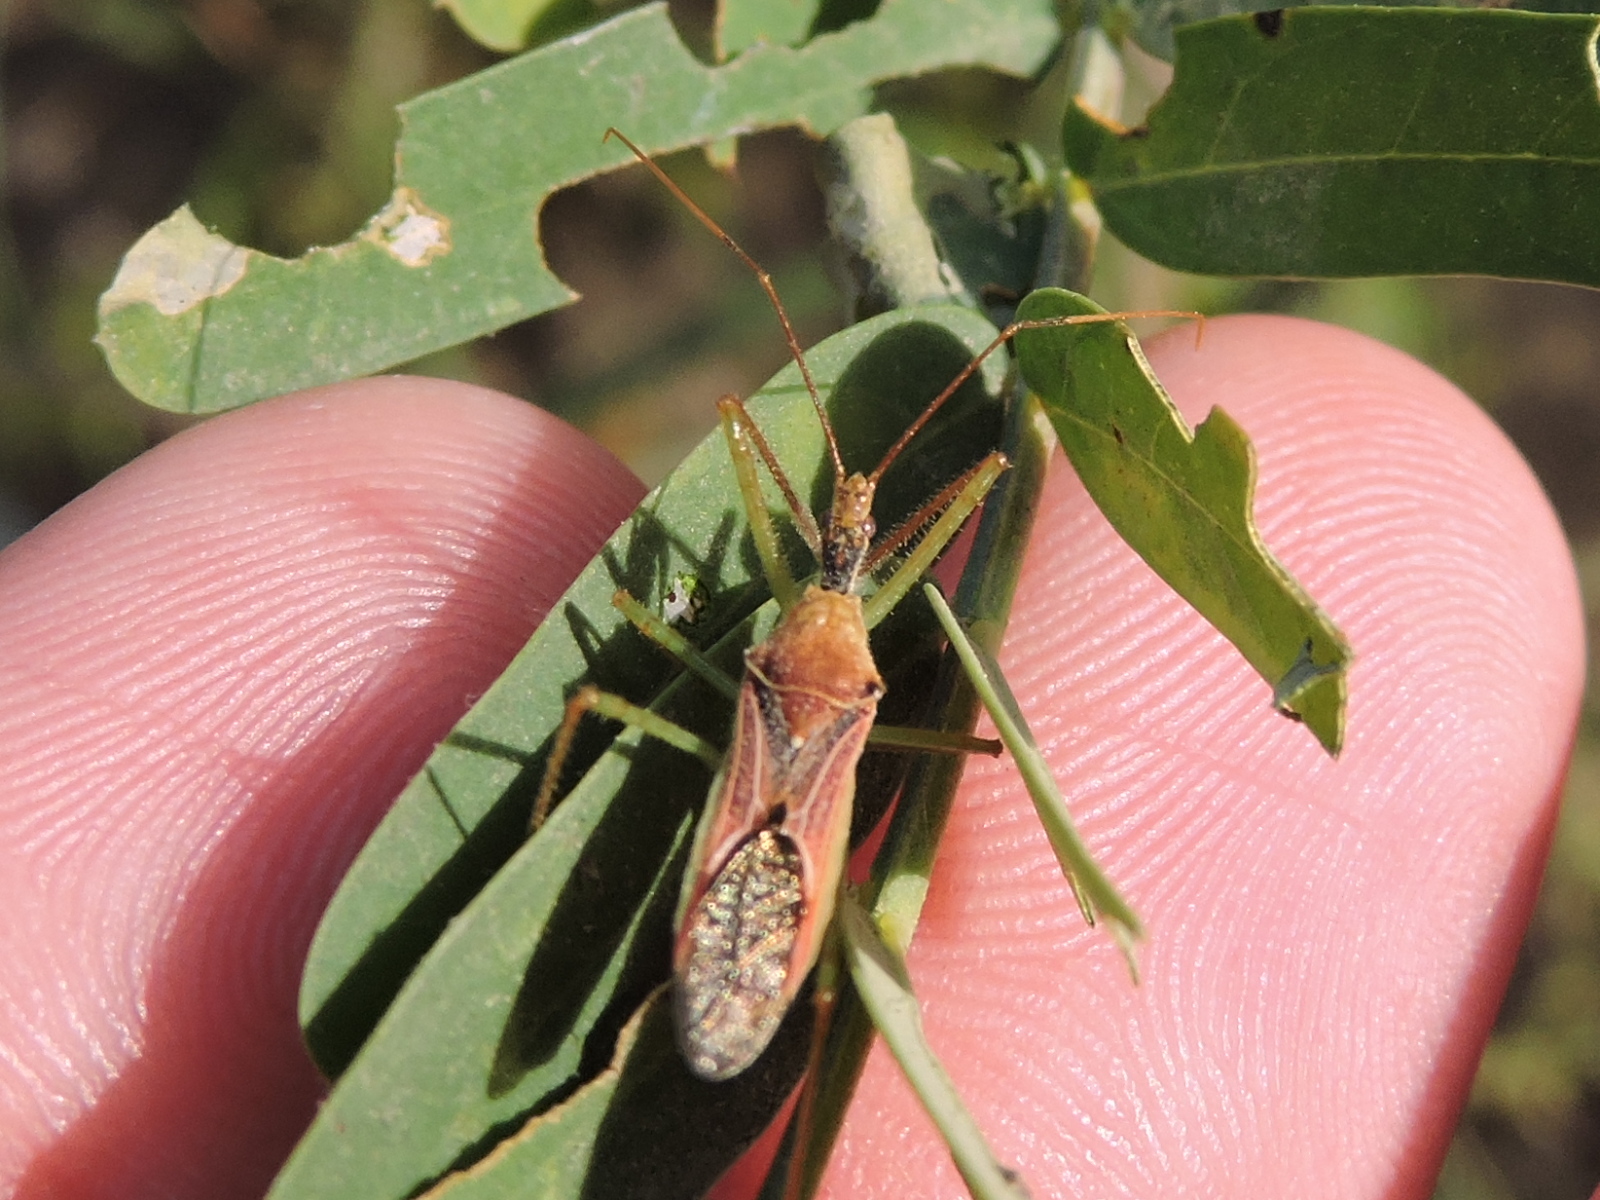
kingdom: Animalia
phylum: Arthropoda
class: Insecta
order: Hemiptera
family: Reduviidae
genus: Zelus
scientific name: Zelus renardii
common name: Assassin bug
